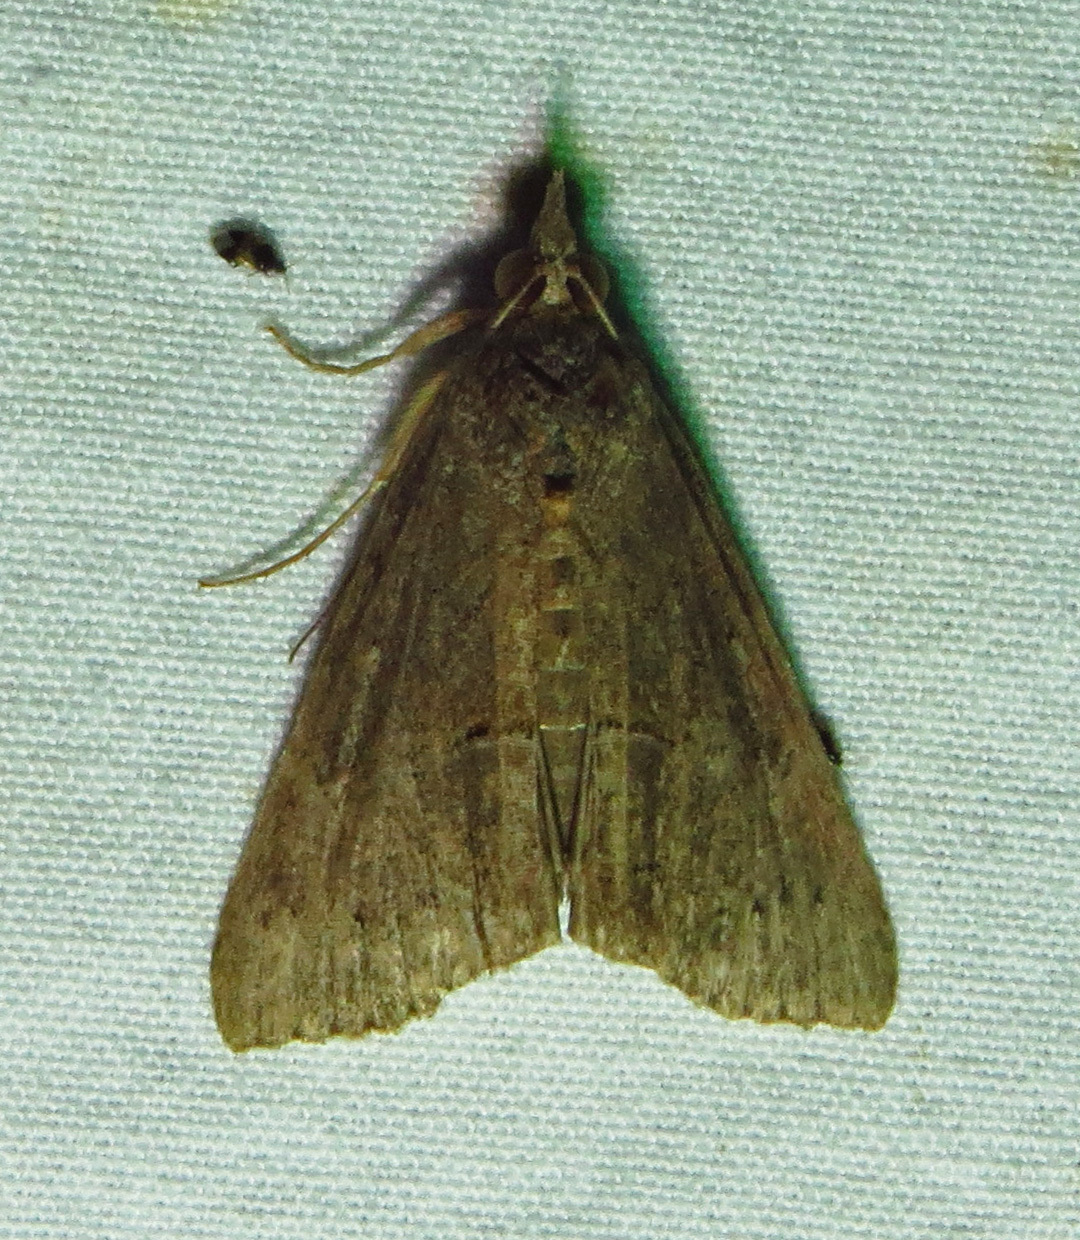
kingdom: Animalia
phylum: Arthropoda
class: Insecta
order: Lepidoptera
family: Erebidae
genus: Hypena
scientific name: Hypena scabra
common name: Green cloverworm
